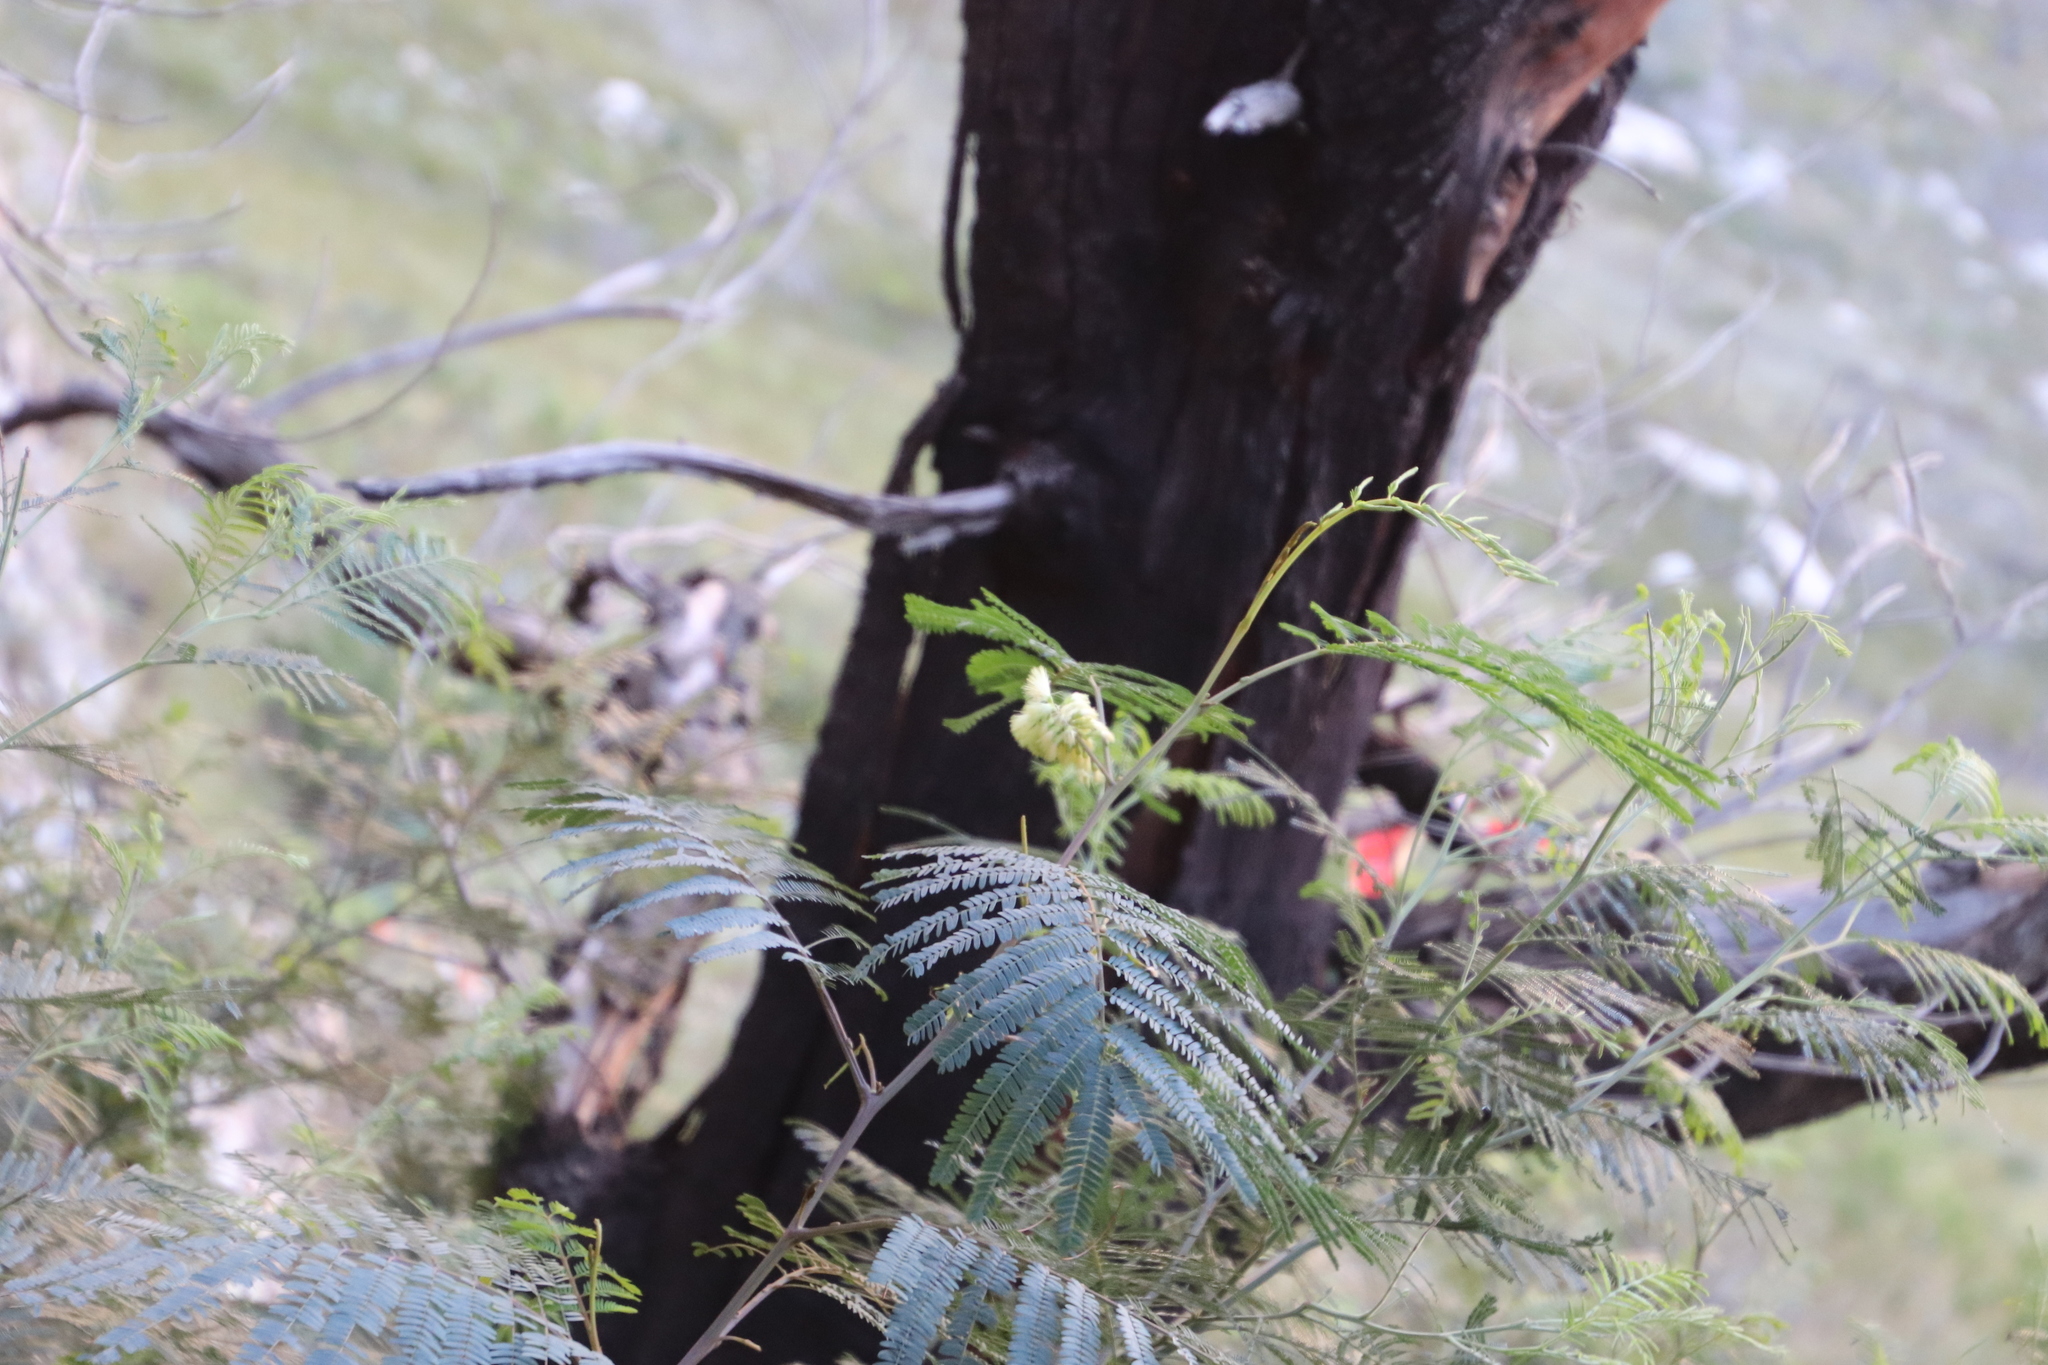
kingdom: Plantae
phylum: Tracheophyta
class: Magnoliopsida
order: Fabales
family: Fabaceae
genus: Paraserianthes
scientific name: Paraserianthes lophantha
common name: Plume albizia
